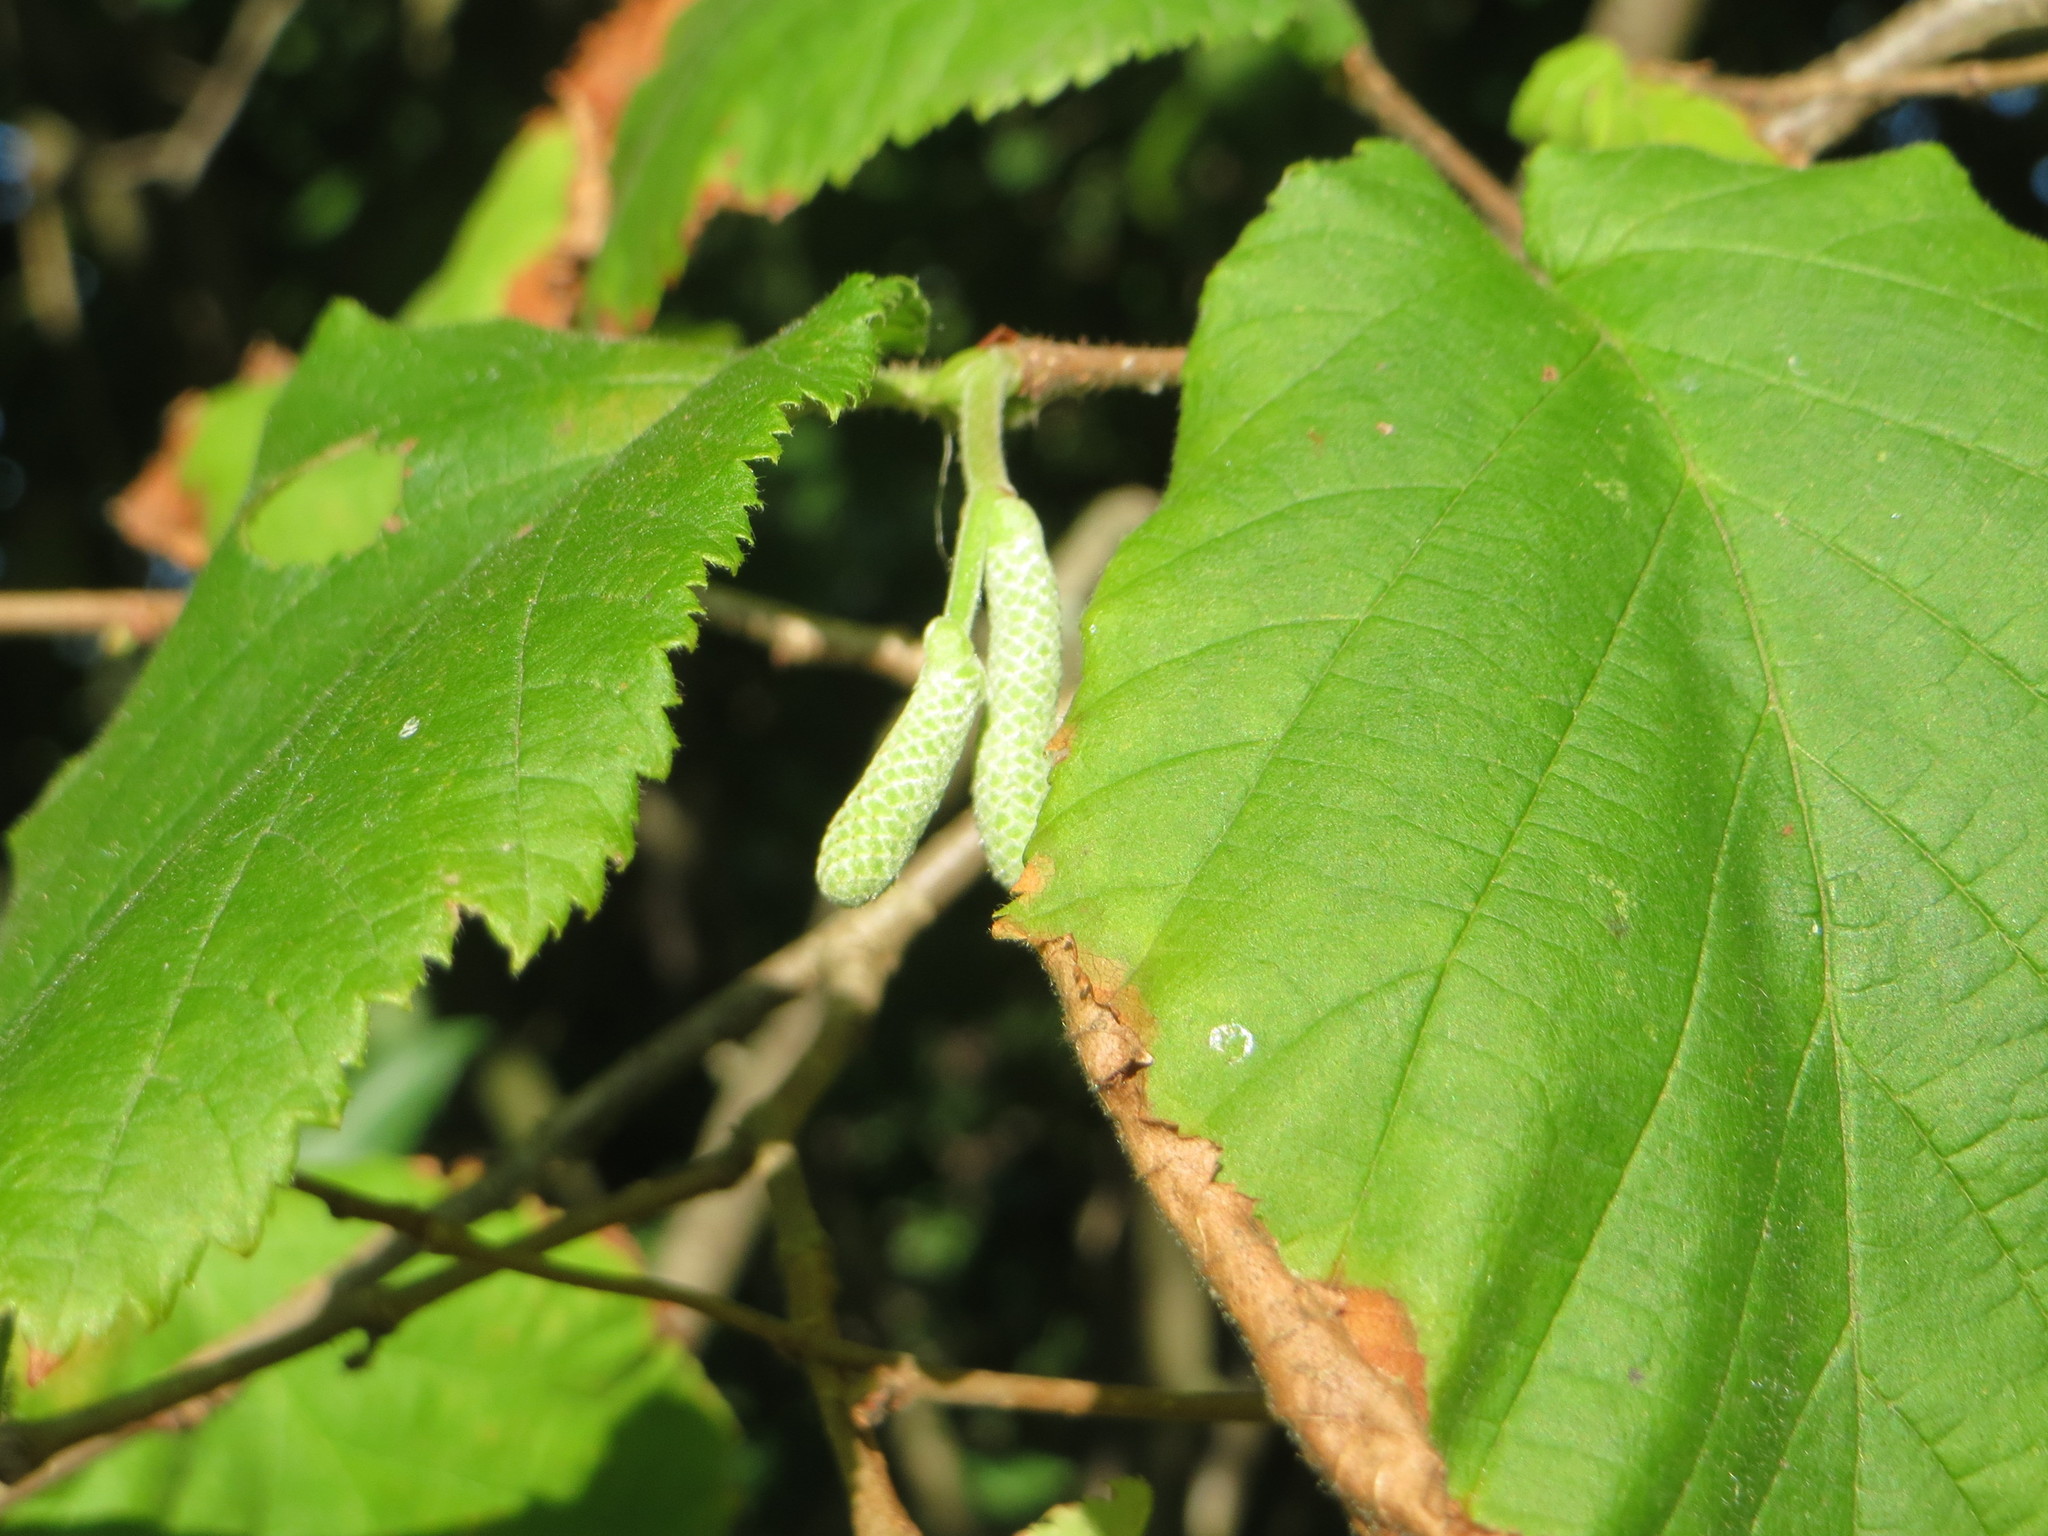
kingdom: Plantae
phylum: Tracheophyta
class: Magnoliopsida
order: Fagales
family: Betulaceae
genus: Corylus
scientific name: Corylus avellana
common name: European hazel
